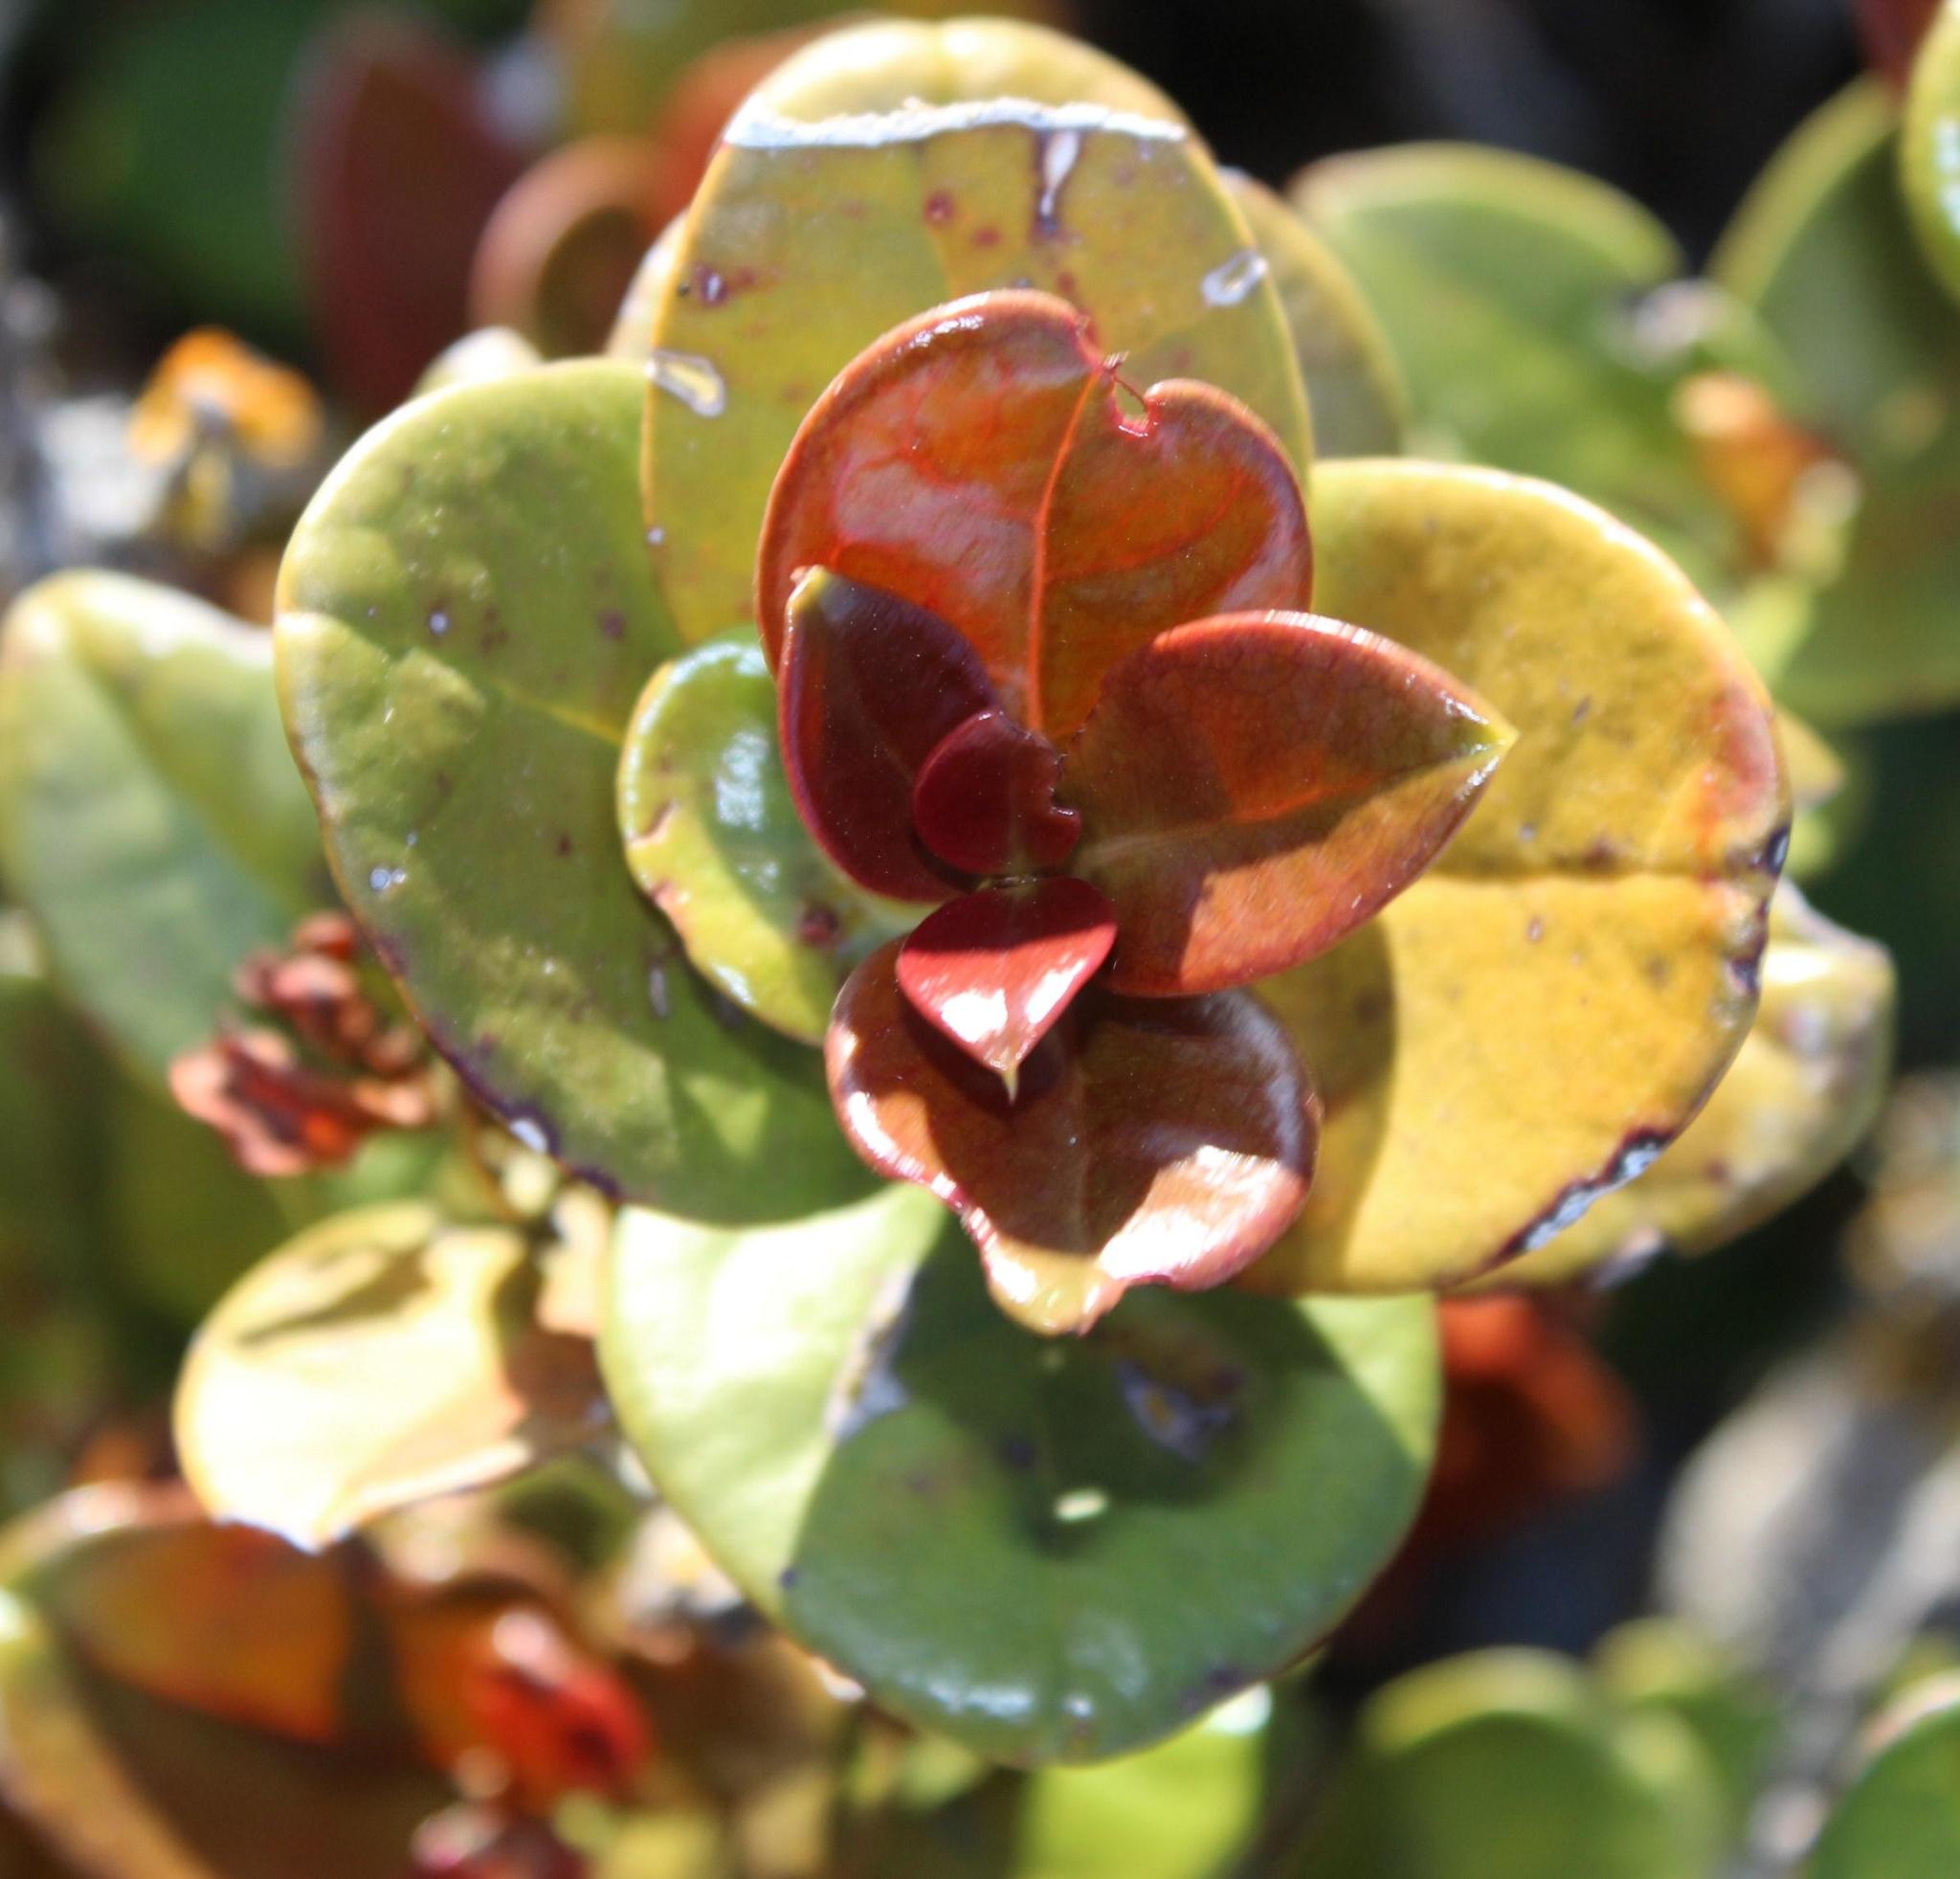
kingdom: Plantae
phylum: Tracheophyta
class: Magnoliopsida
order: Celastrales
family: Celastraceae
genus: Maurocenia
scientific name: Maurocenia frangula
